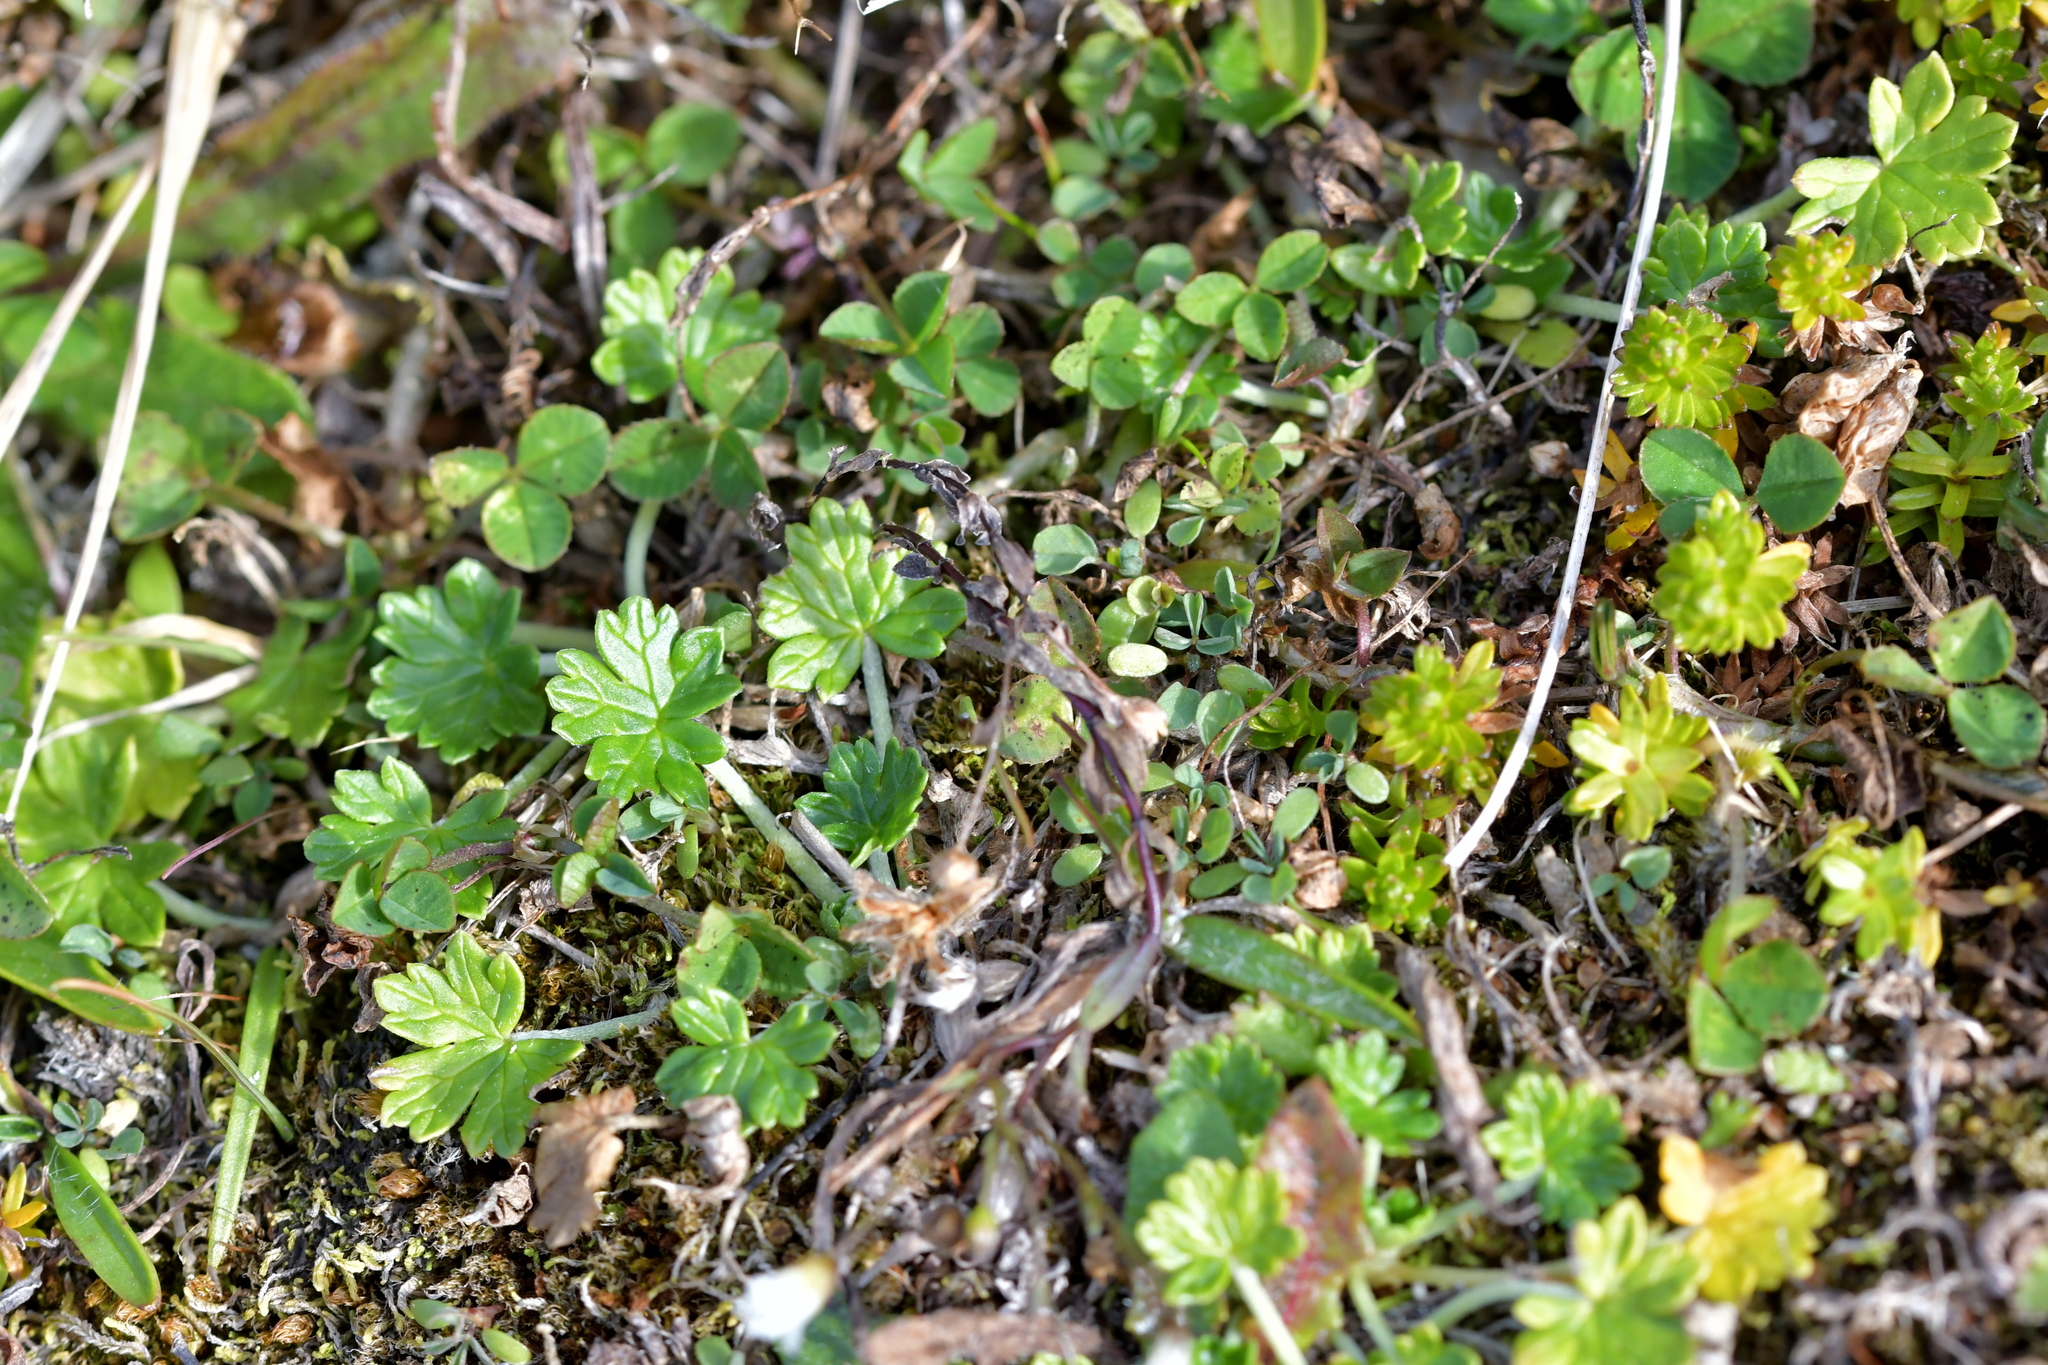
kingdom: Plantae
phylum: Tracheophyta
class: Magnoliopsida
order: Geraniales
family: Geraniaceae
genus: Geranium
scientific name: Geranium brevicaule
